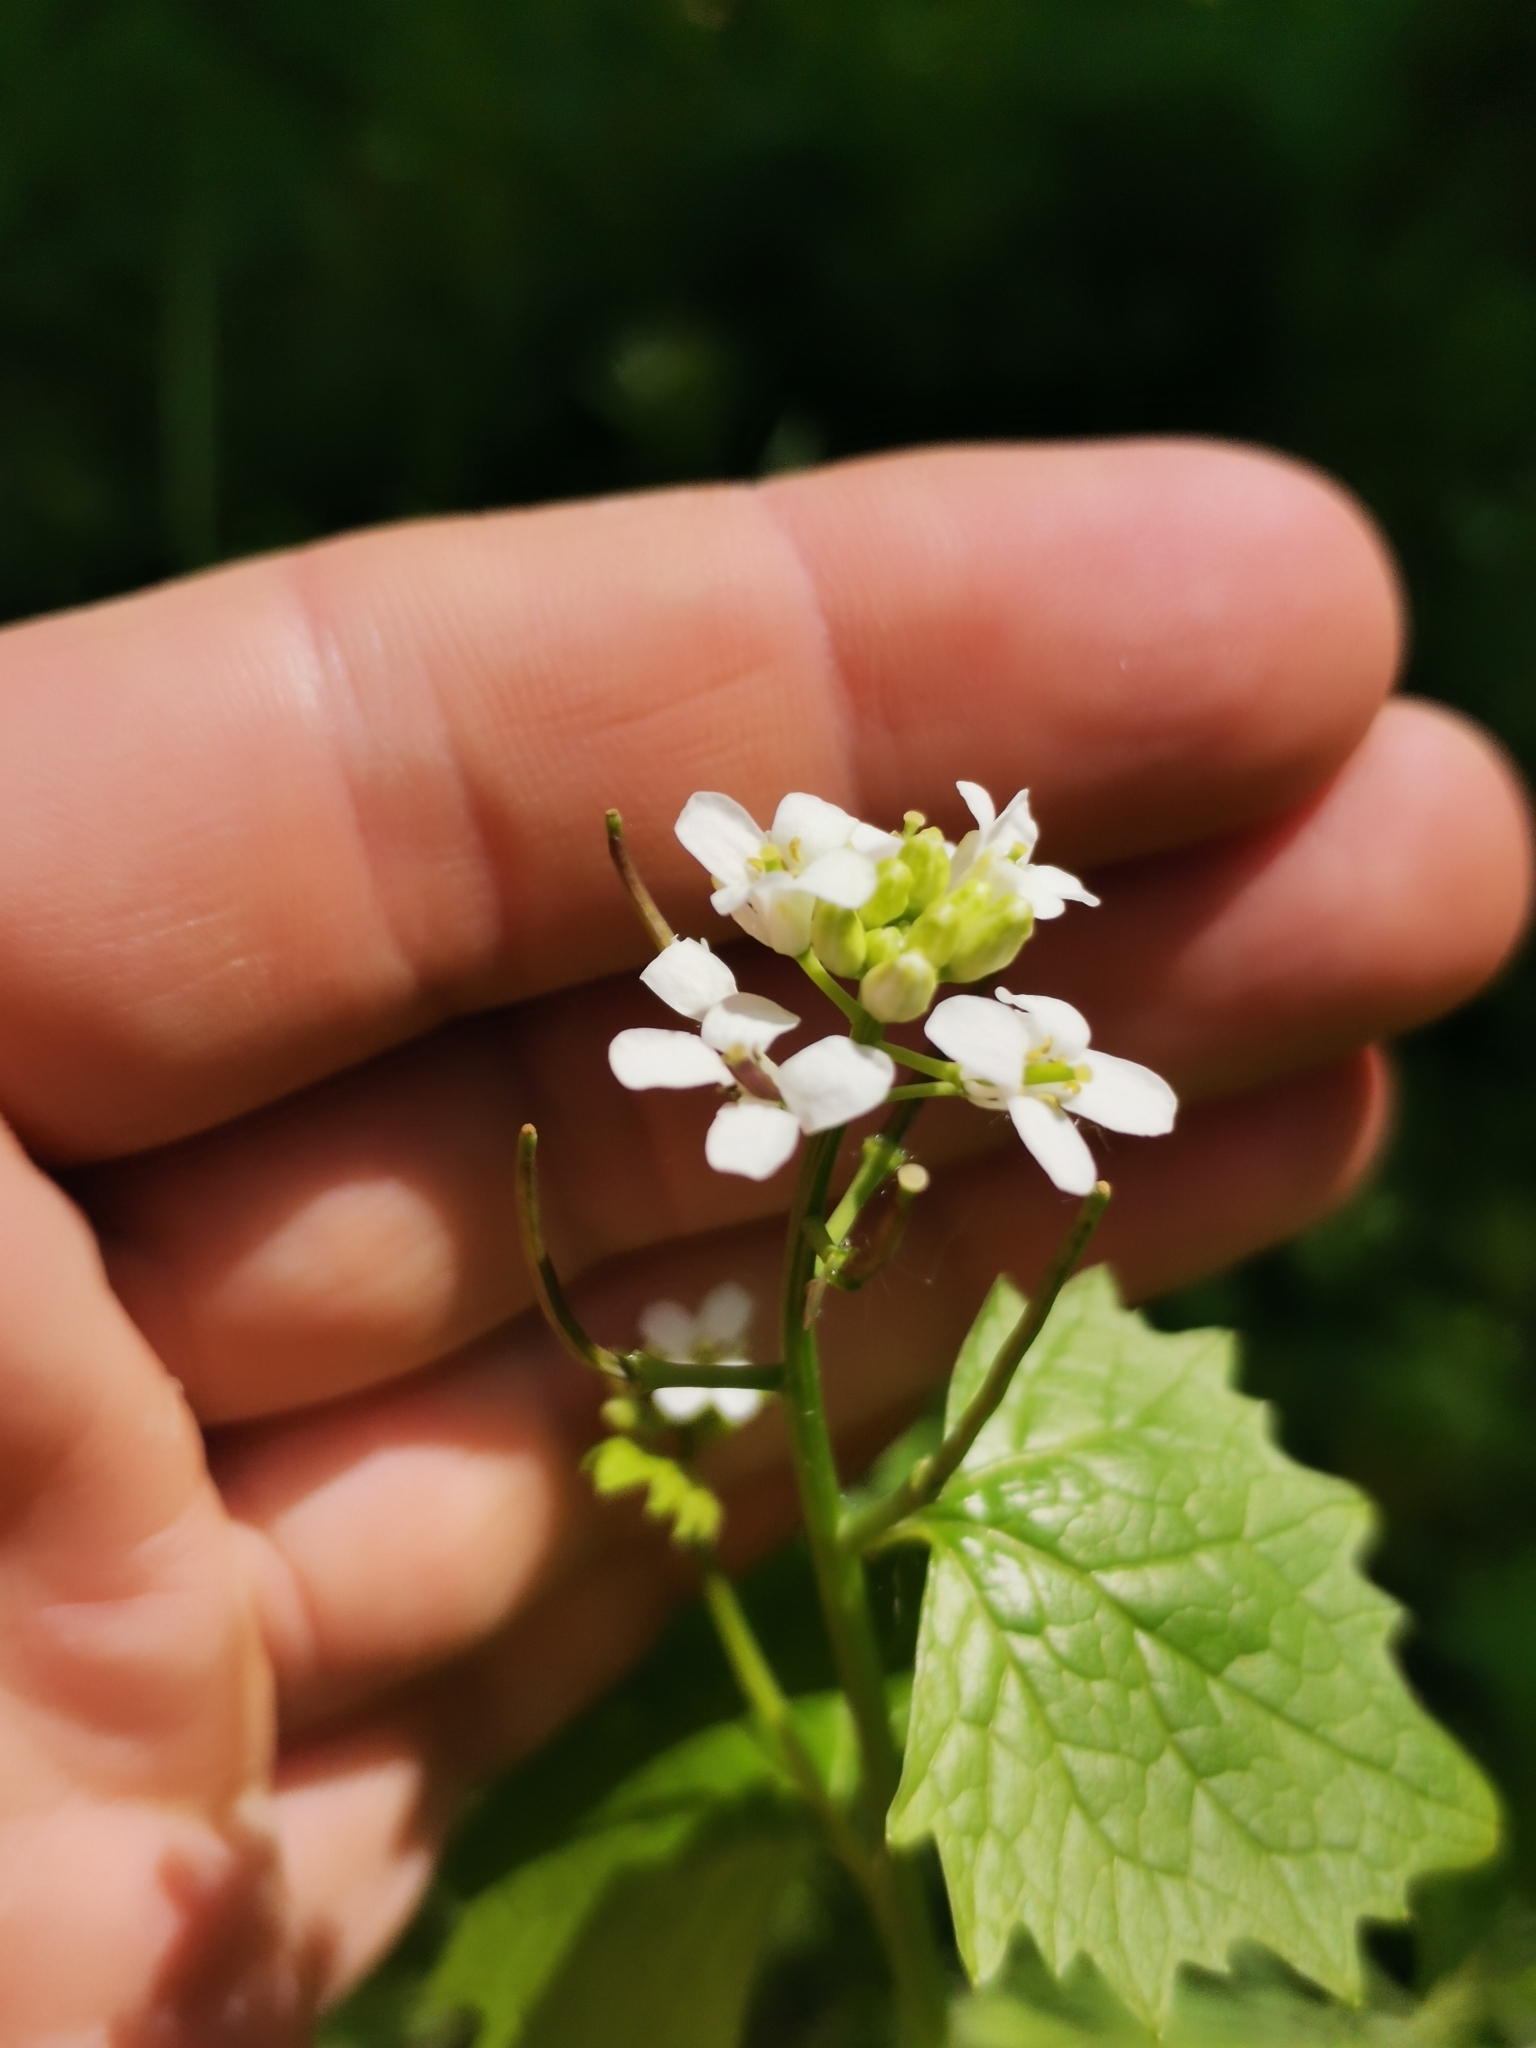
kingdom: Plantae
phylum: Tracheophyta
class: Magnoliopsida
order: Brassicales
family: Brassicaceae
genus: Alliaria
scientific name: Alliaria petiolata
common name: Garlic mustard
